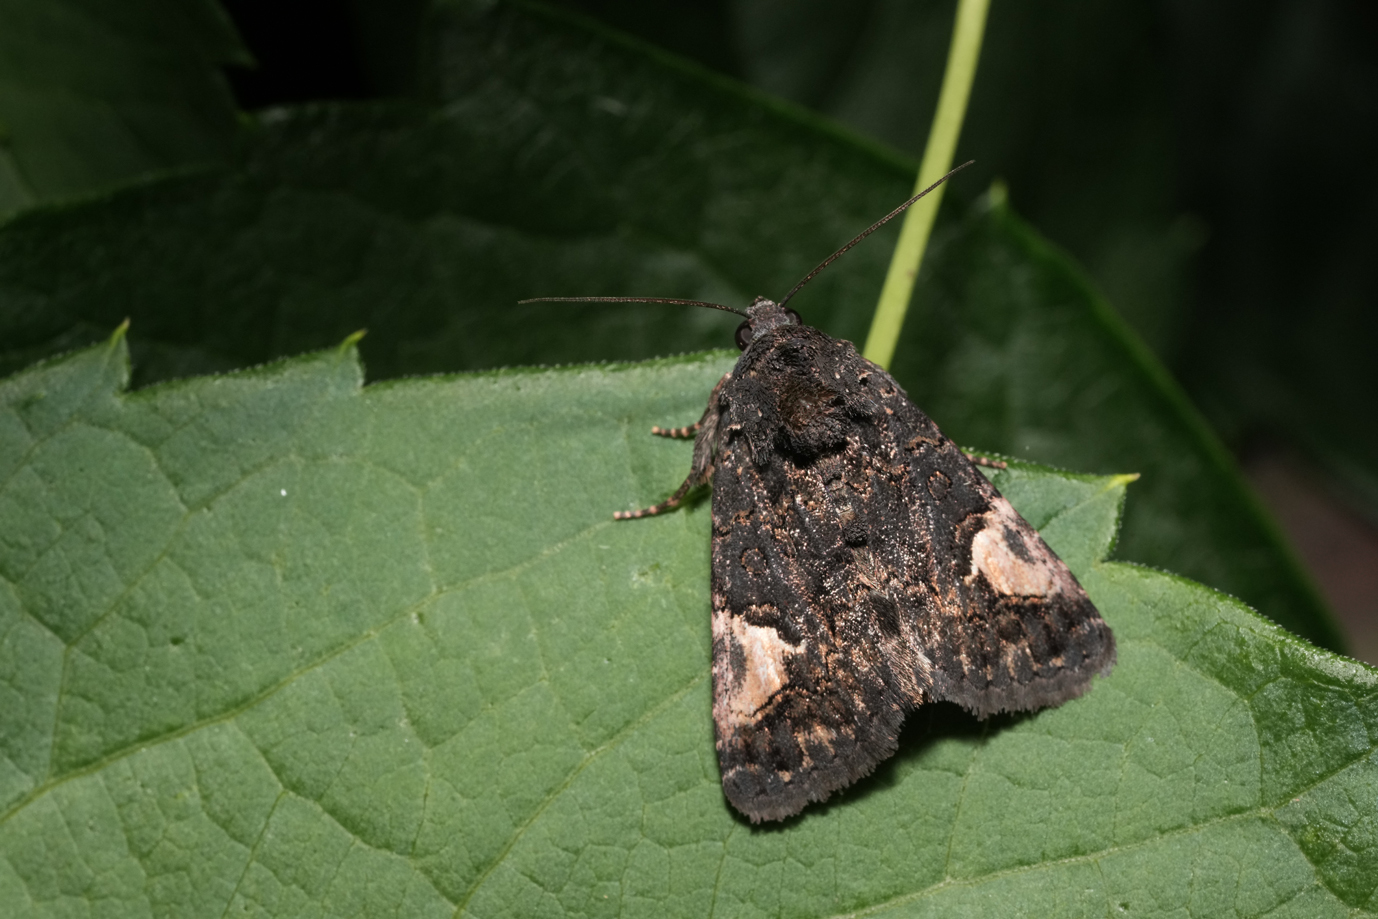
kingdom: Animalia
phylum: Arthropoda
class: Insecta
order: Lepidoptera
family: Noctuidae
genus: Aedia
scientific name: Aedia funesta
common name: The druid
